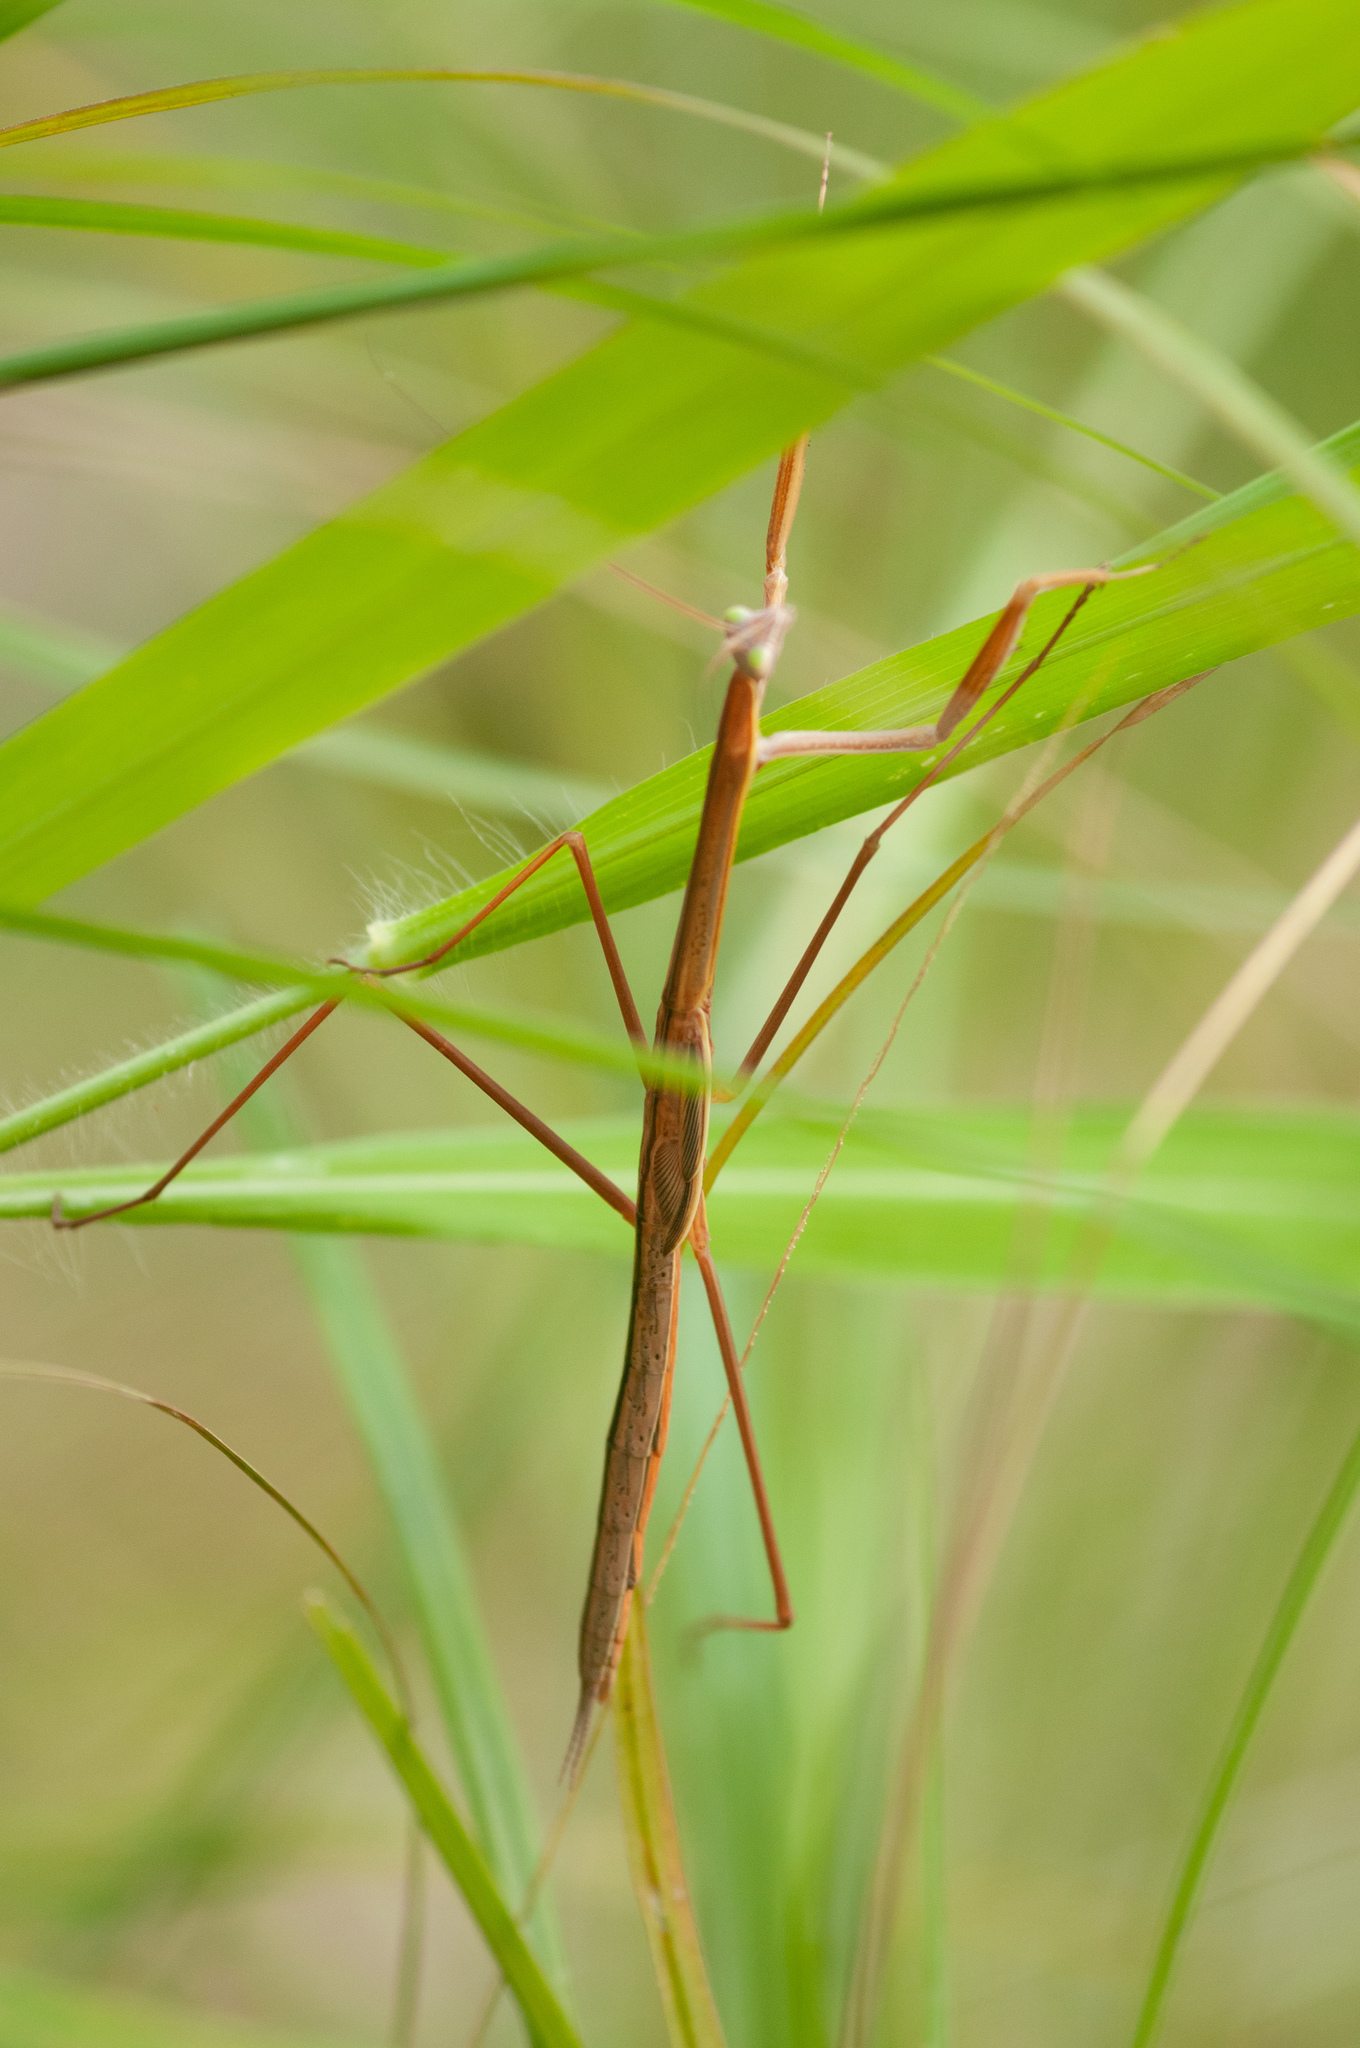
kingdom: Animalia
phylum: Arthropoda
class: Insecta
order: Mantodea
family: Mantidae
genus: Tenodera
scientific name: Tenodera australasiae
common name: Purple-winged mantis
